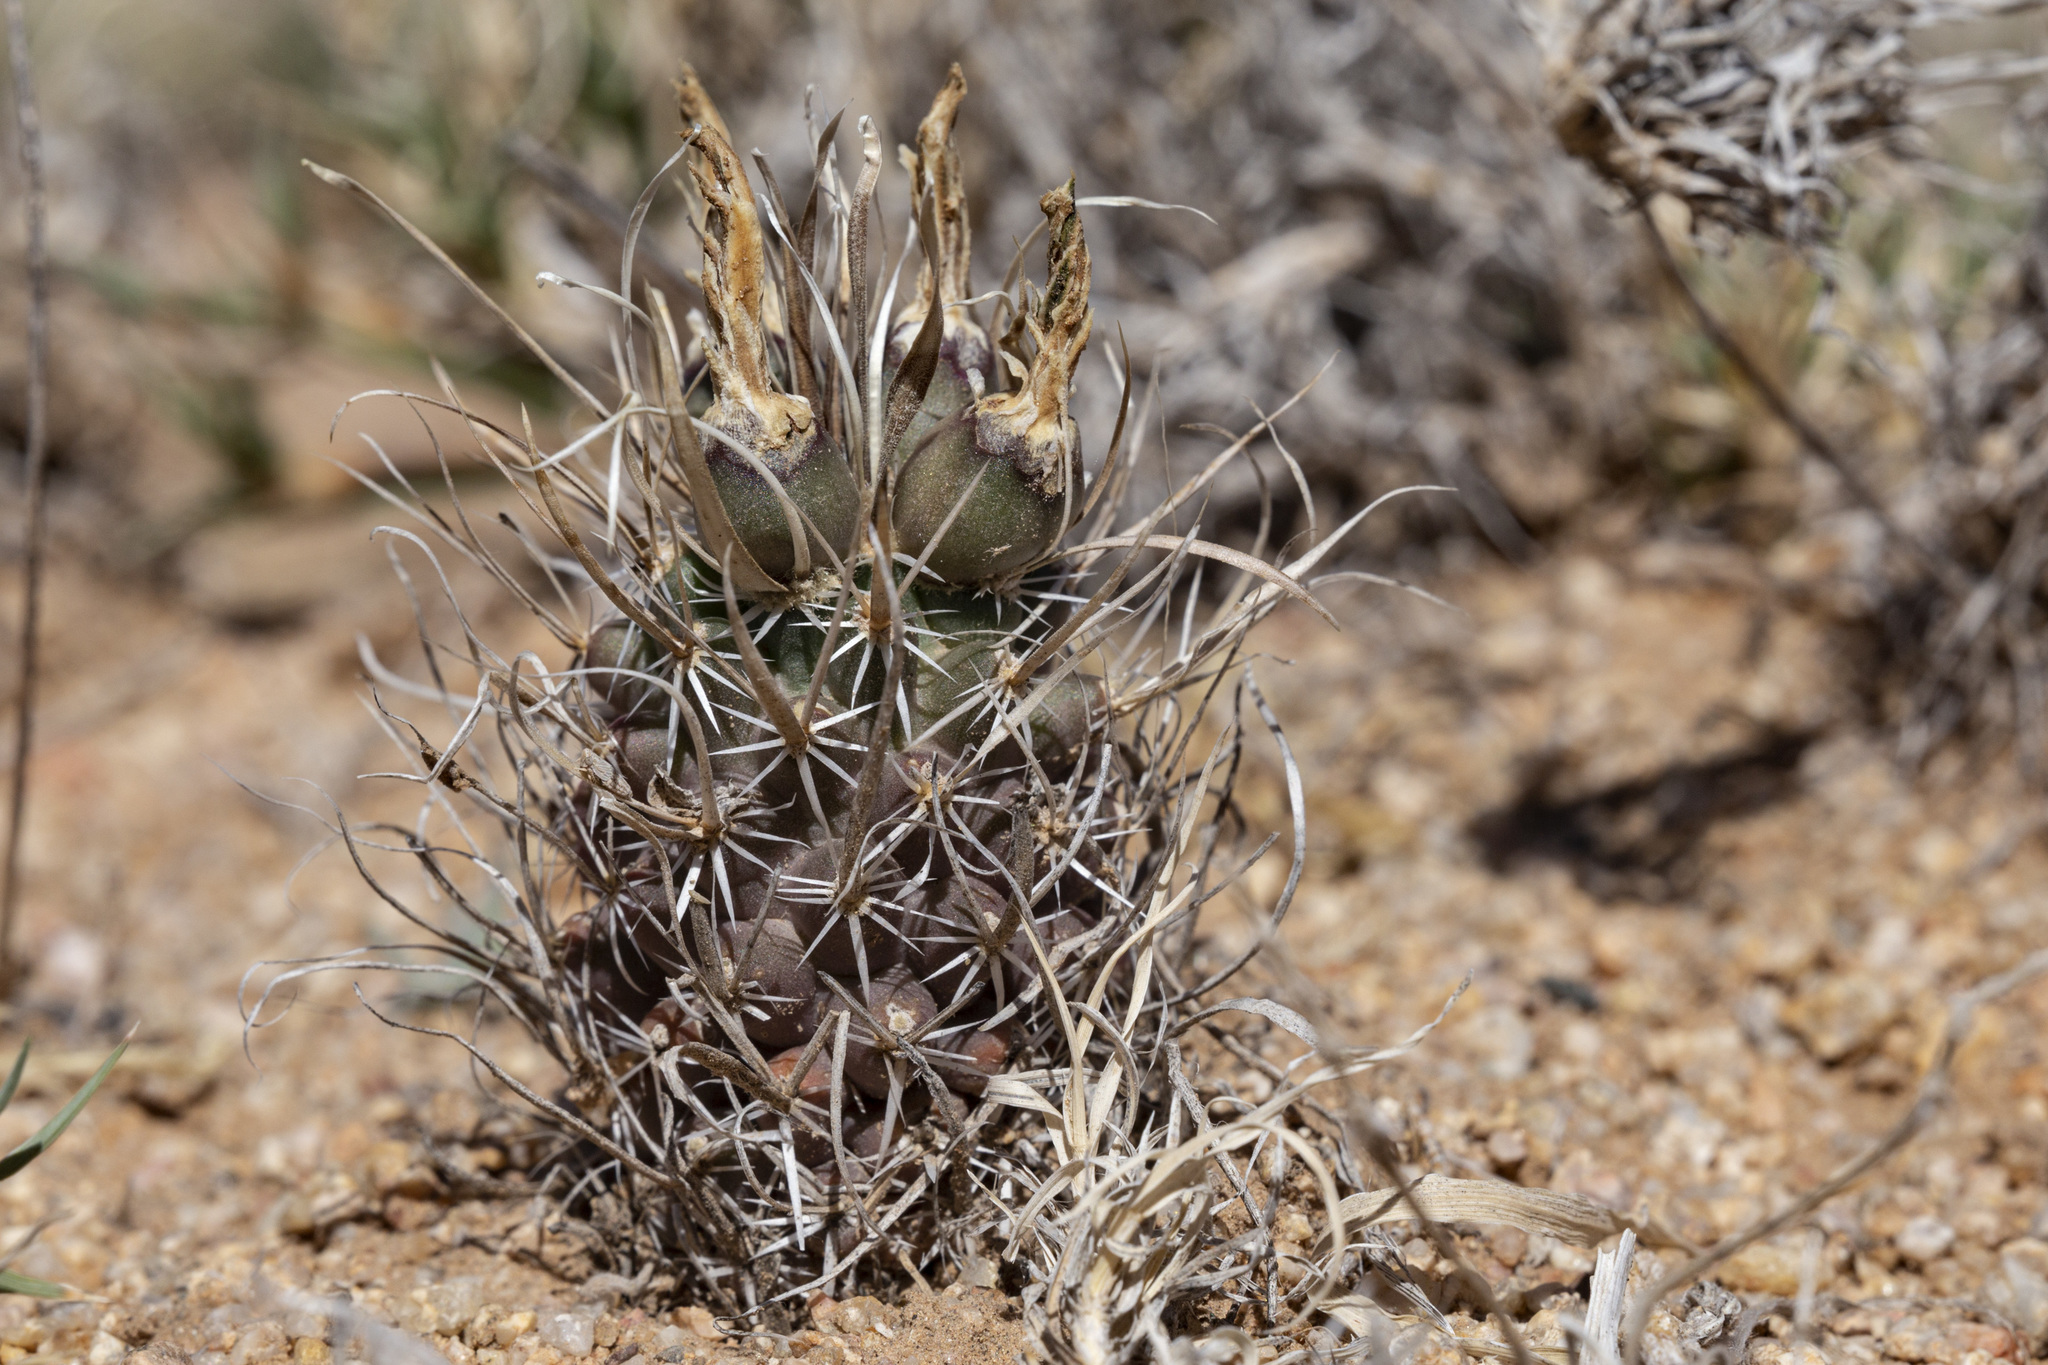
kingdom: Plantae
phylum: Tracheophyta
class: Magnoliopsida
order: Caryophyllales
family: Cactaceae
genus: Sclerocactus
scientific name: Sclerocactus papyracanthus
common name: Grama grass cactus
